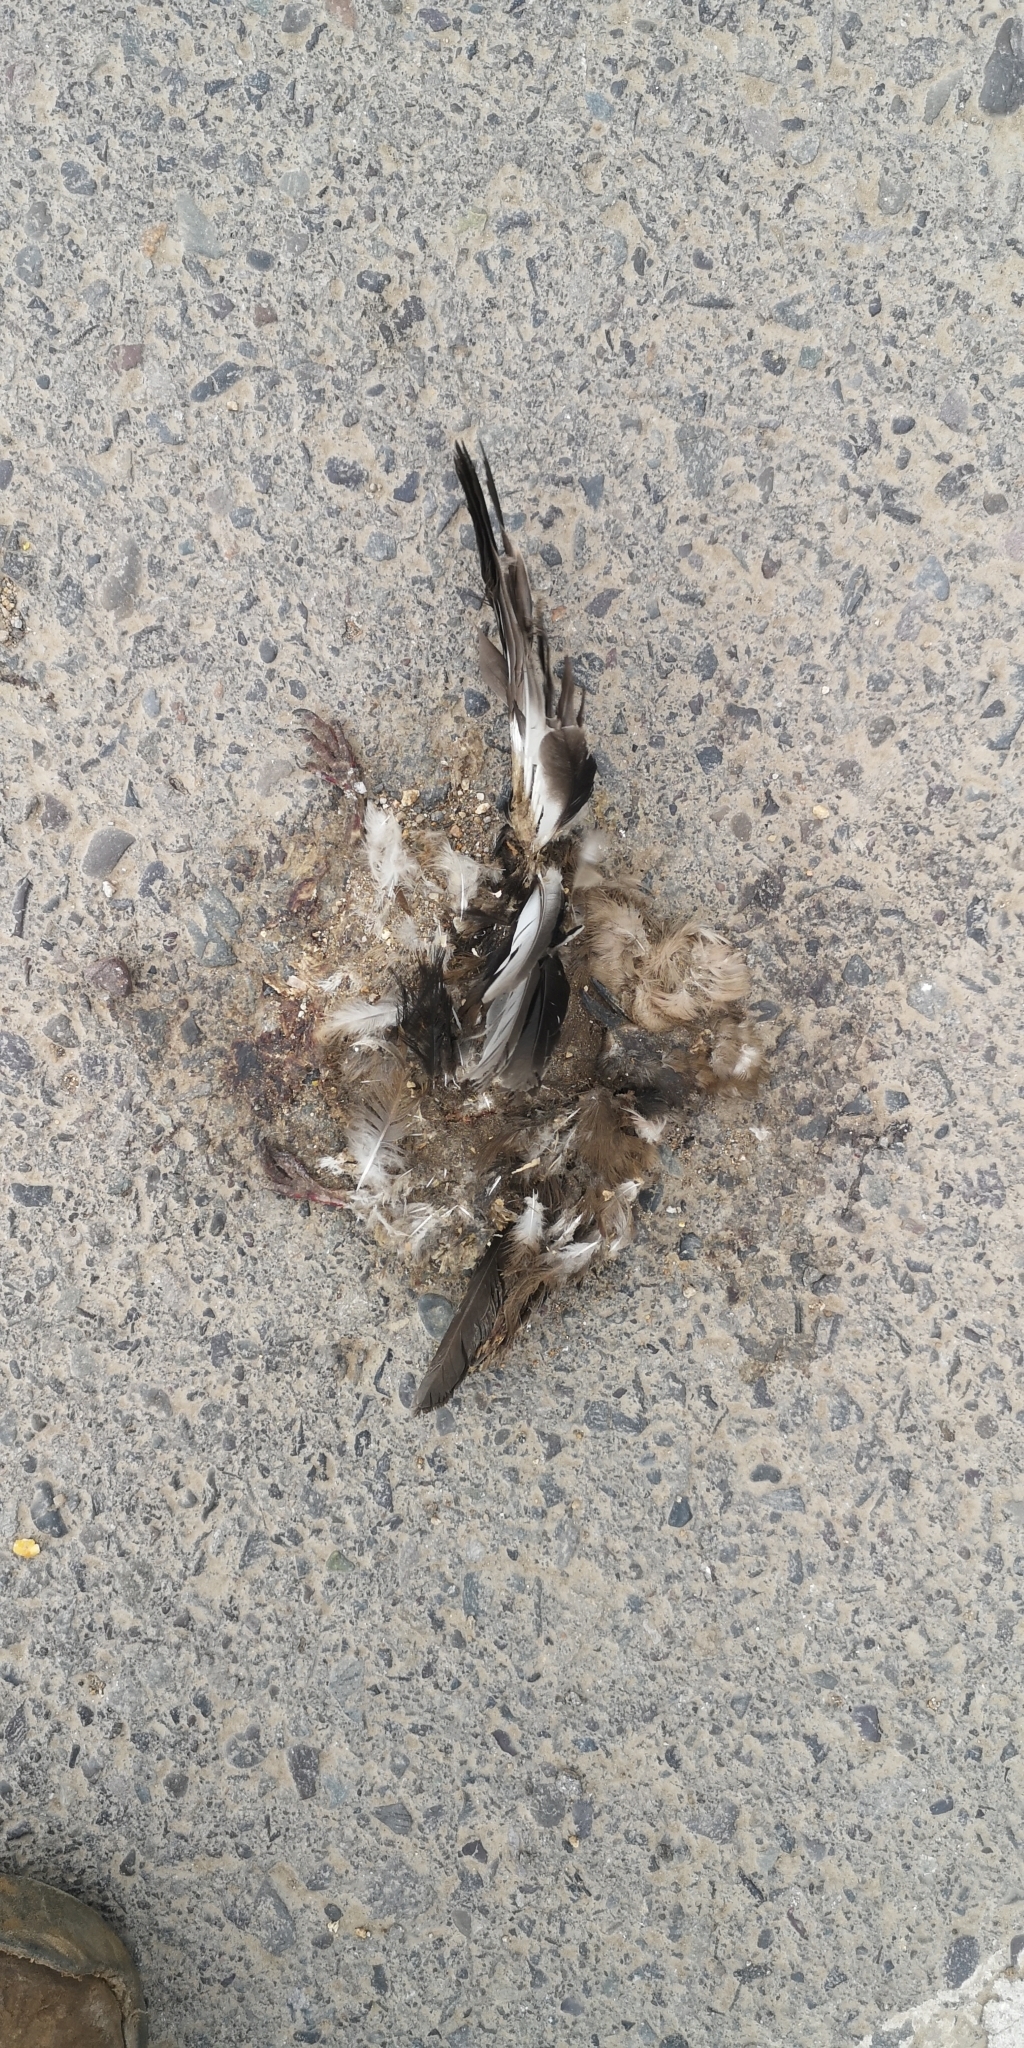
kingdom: Animalia
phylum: Chordata
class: Aves
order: Columbiformes
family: Columbidae
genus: Columbina
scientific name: Columbina picui
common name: Picui ground dove
